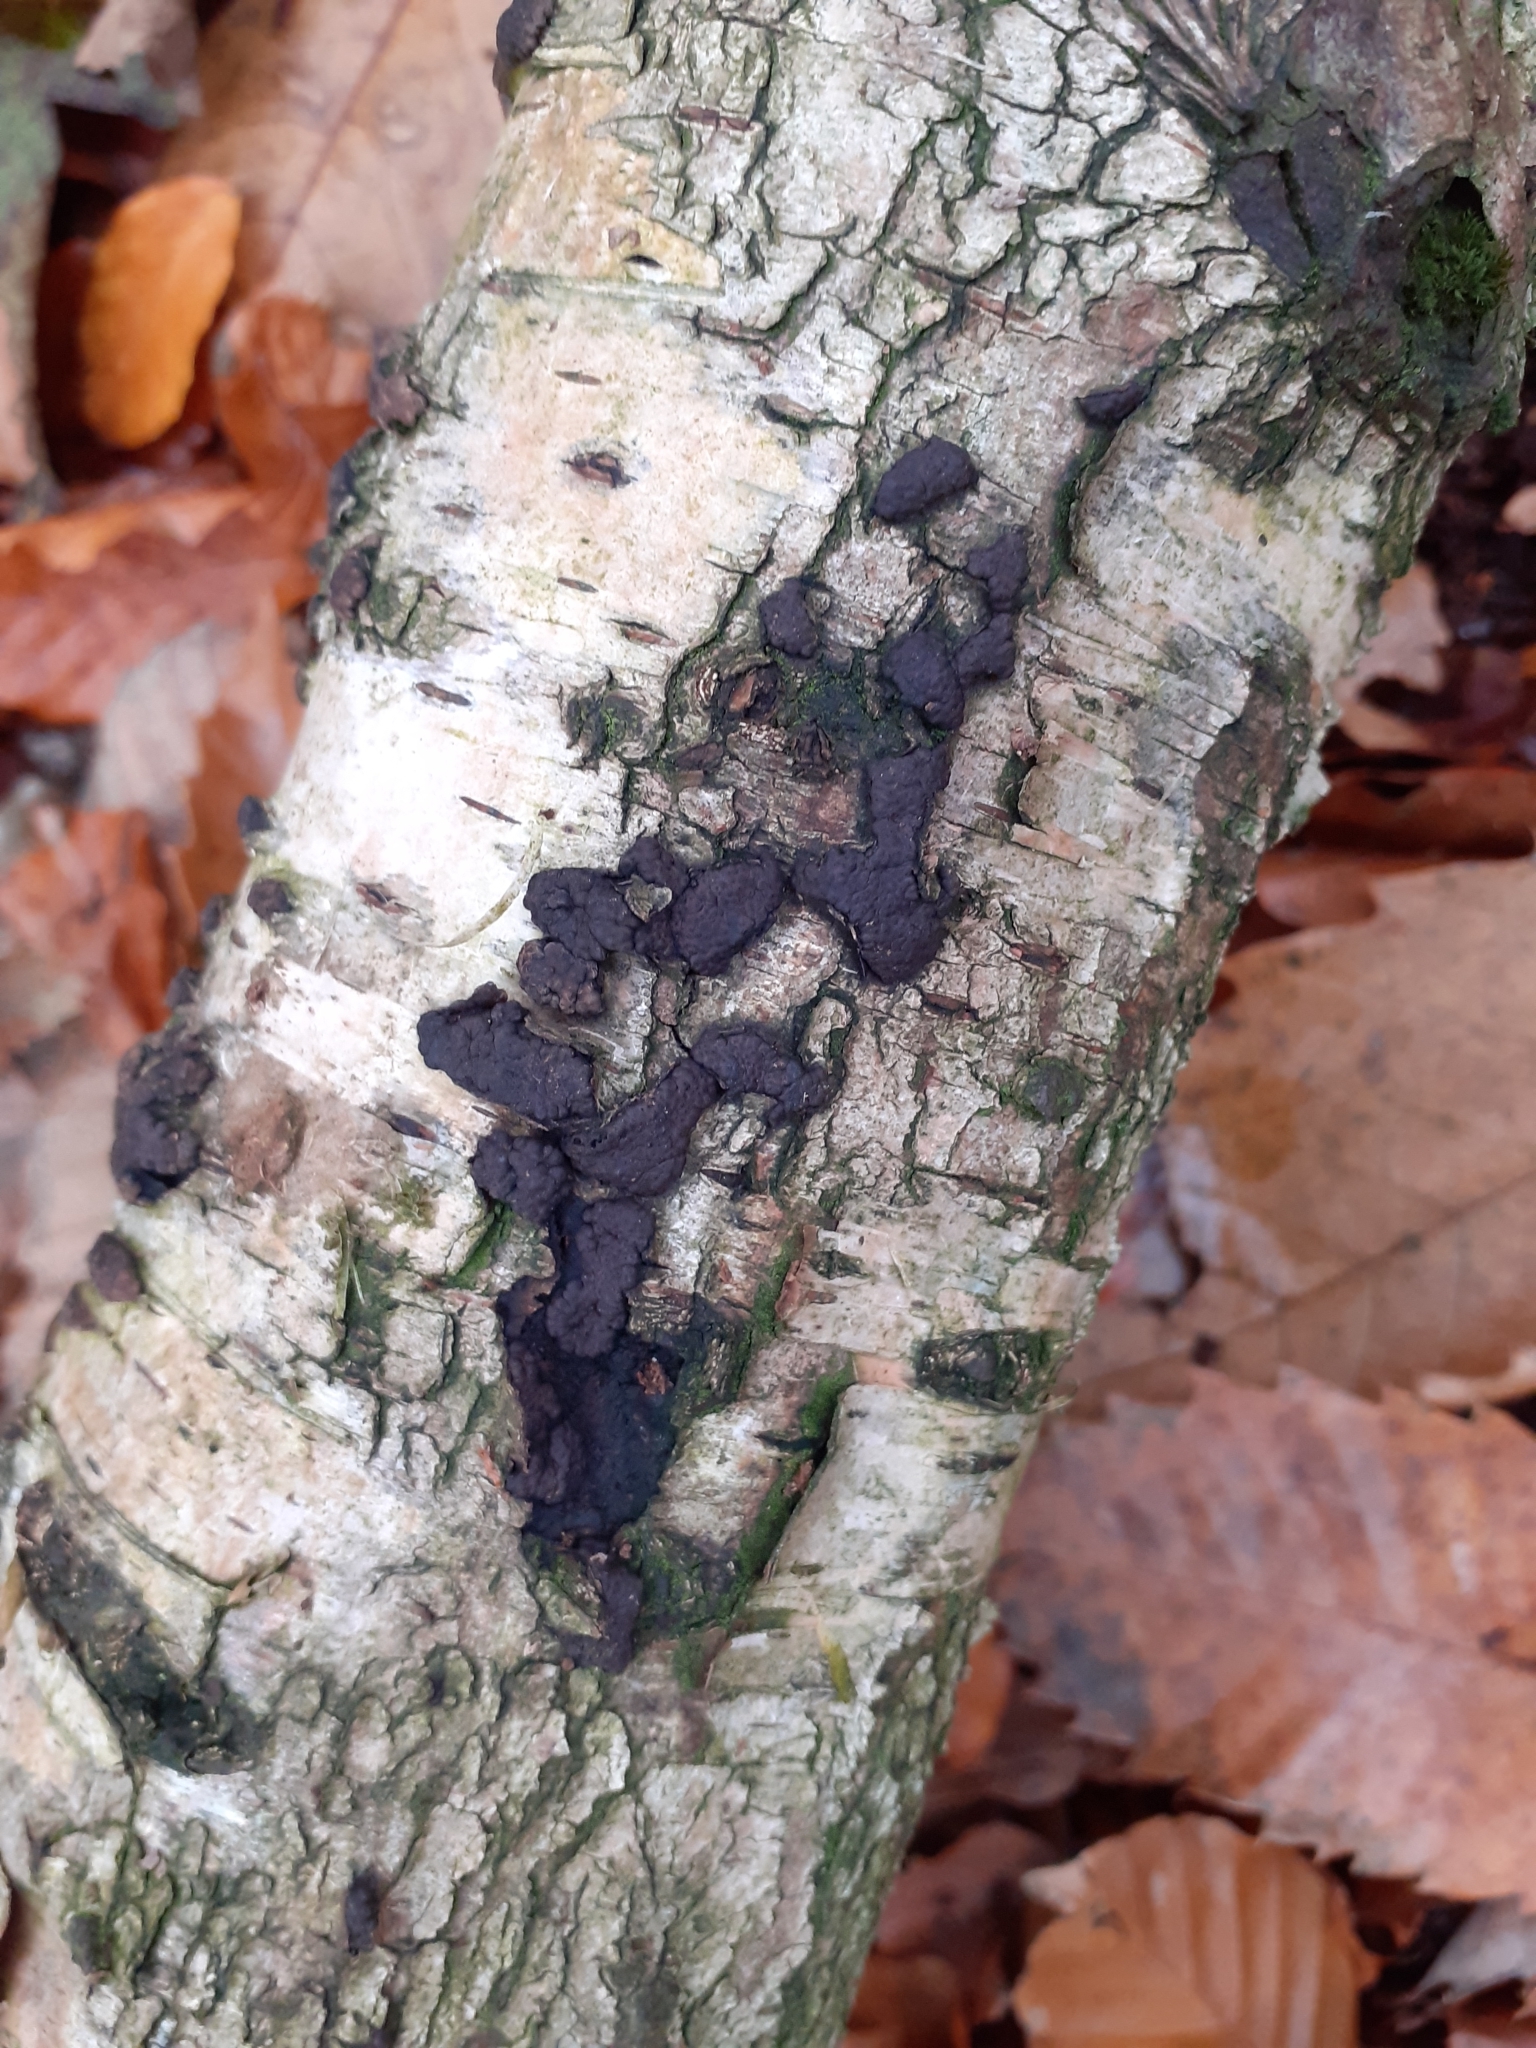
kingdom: Fungi
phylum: Ascomycota
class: Sordariomycetes
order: Xylariales
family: Hypoxylaceae
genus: Jackrogersella
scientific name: Jackrogersella multiformis
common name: Birch woodwart
